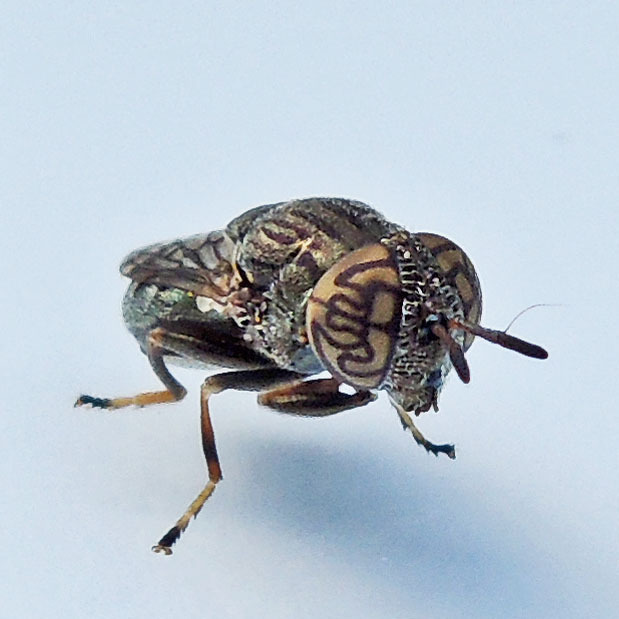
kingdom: Animalia
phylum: Arthropoda
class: Insecta
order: Diptera
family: Syrphidae
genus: Orthonevra
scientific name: Orthonevra nitida
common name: Wavy mucksucker
